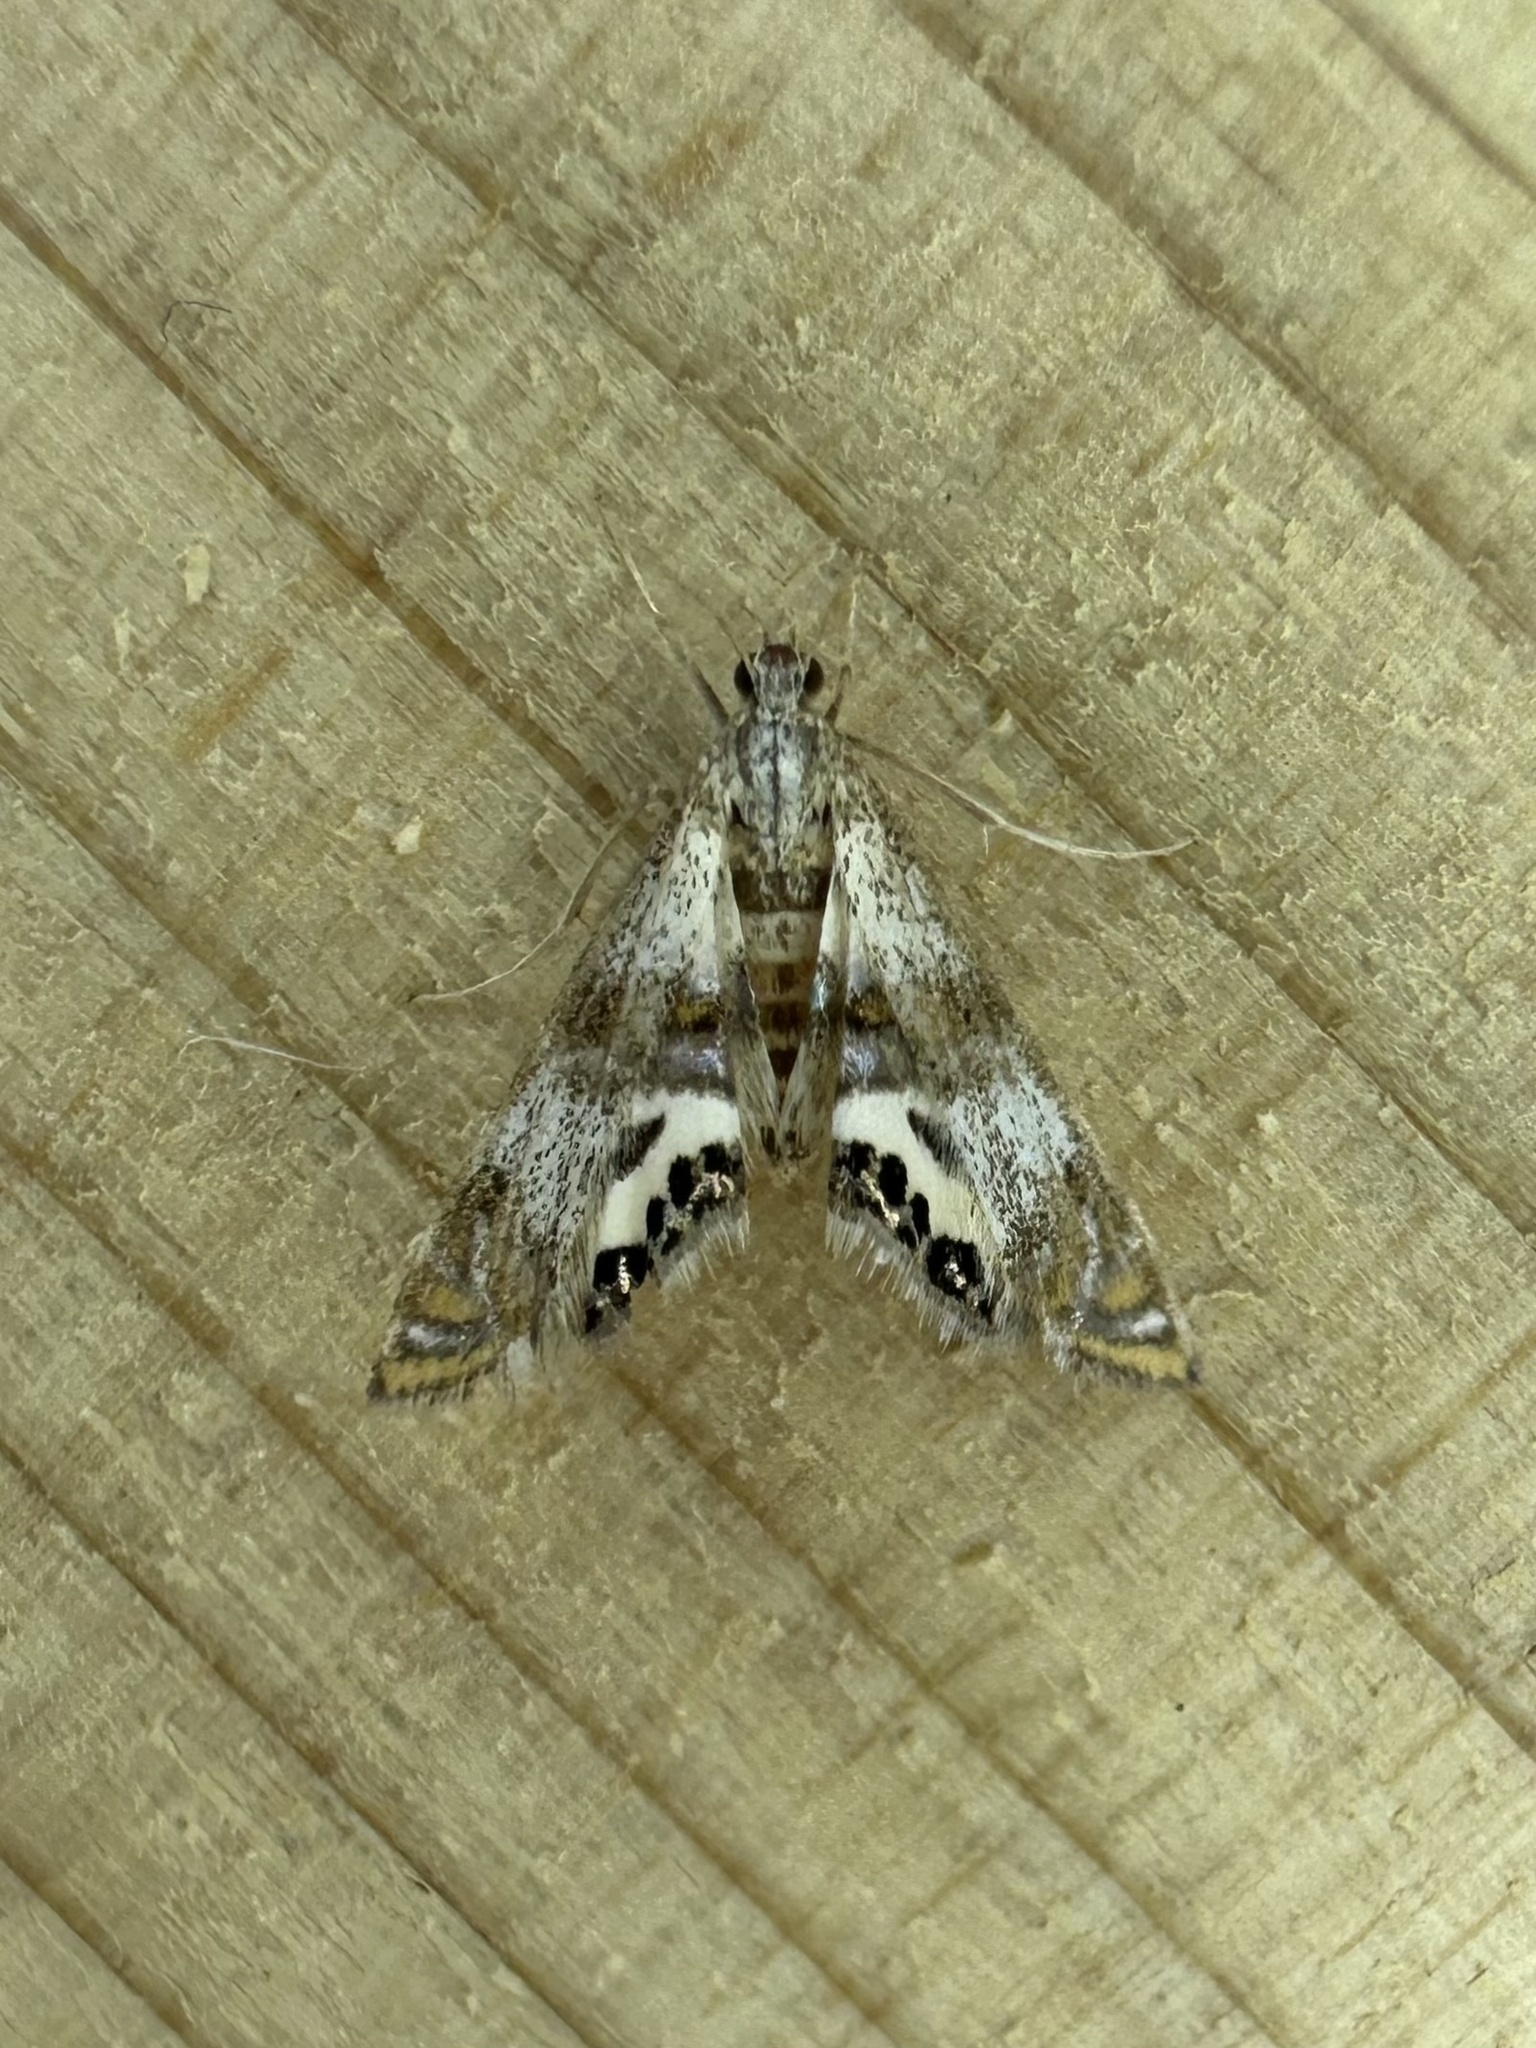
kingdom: Animalia
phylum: Arthropoda
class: Insecta
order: Lepidoptera
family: Crambidae
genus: Petrophila
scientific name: Petrophila bifascialis
